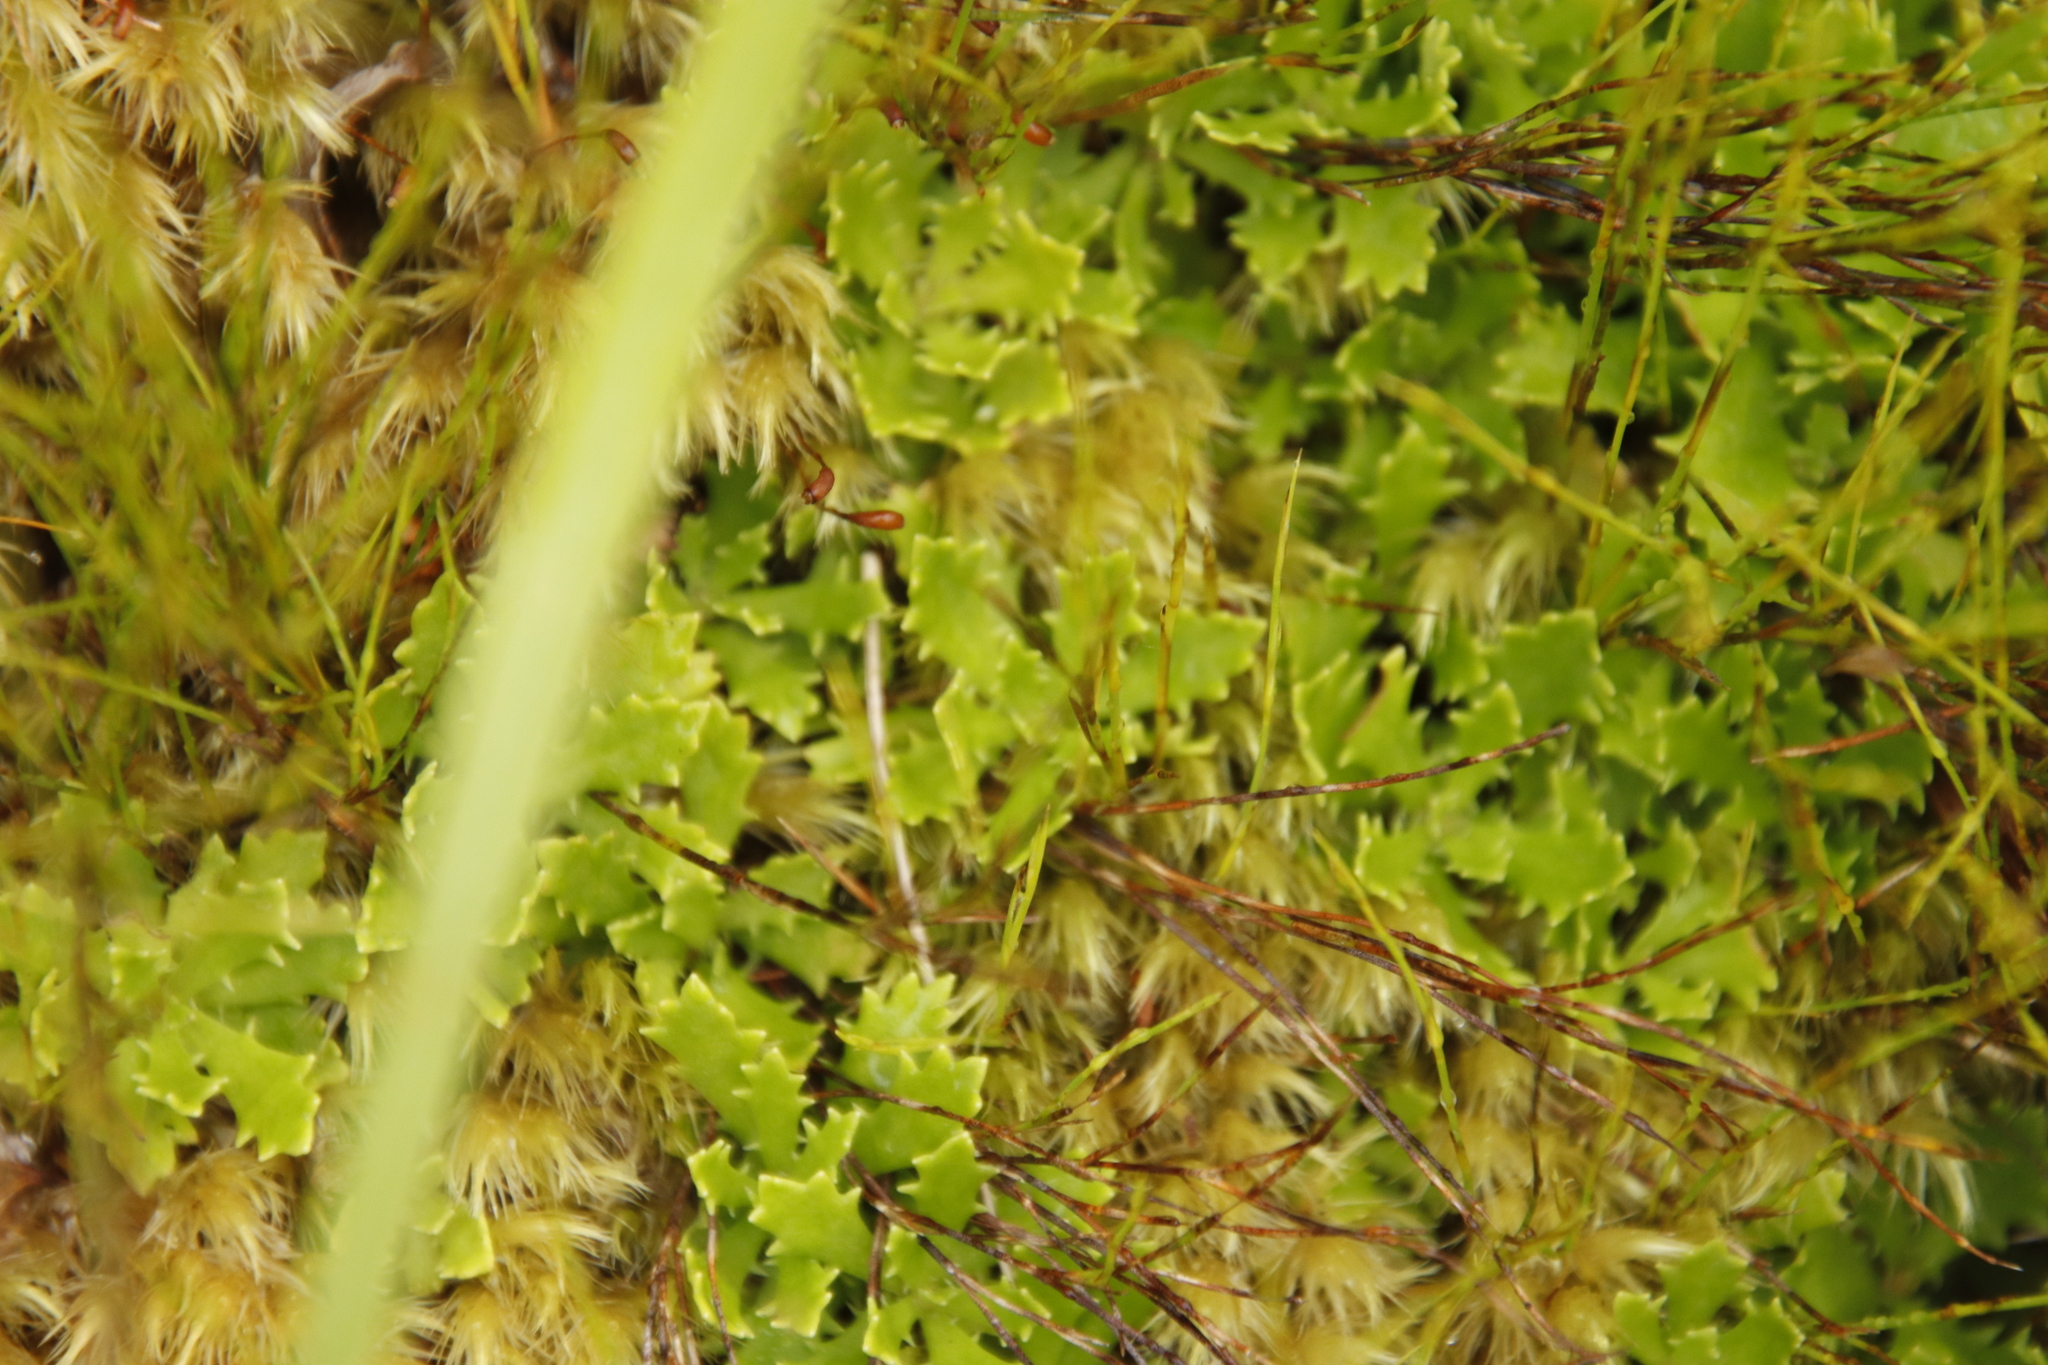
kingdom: Plantae
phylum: Tracheophyta
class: Magnoliopsida
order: Asterales
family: Asteraceae
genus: Osmitopsis
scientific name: Osmitopsis dentata
